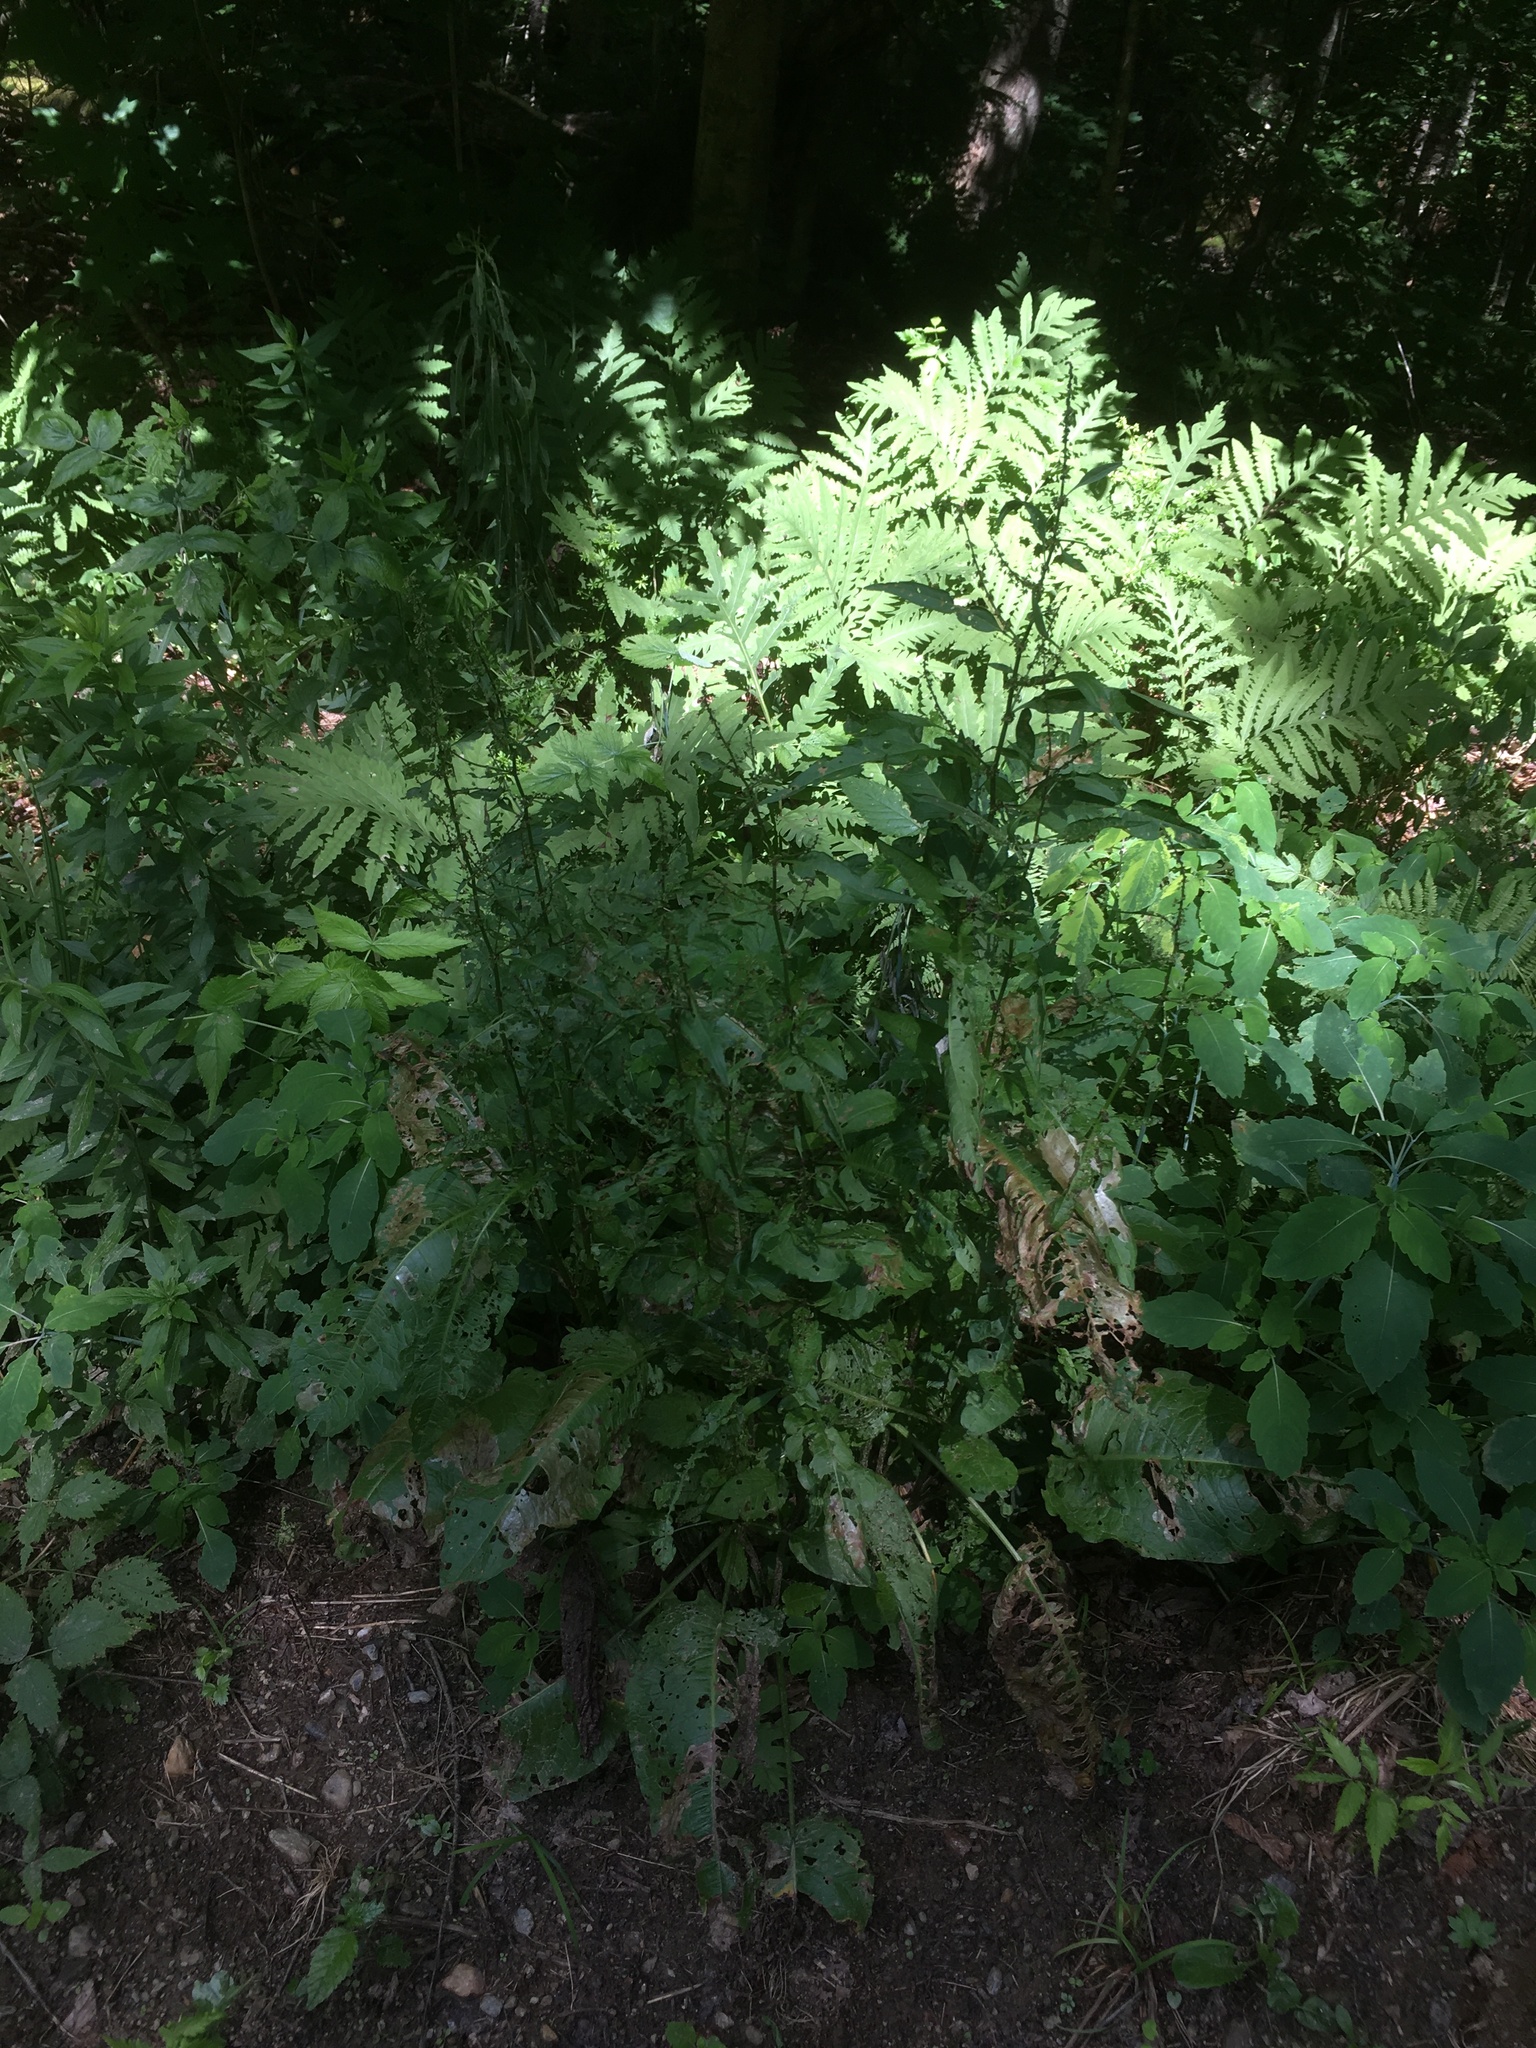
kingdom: Plantae
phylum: Tracheophyta
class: Magnoliopsida
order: Caryophyllales
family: Polygonaceae
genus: Rumex
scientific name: Rumex obtusifolius
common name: Bitter dock
